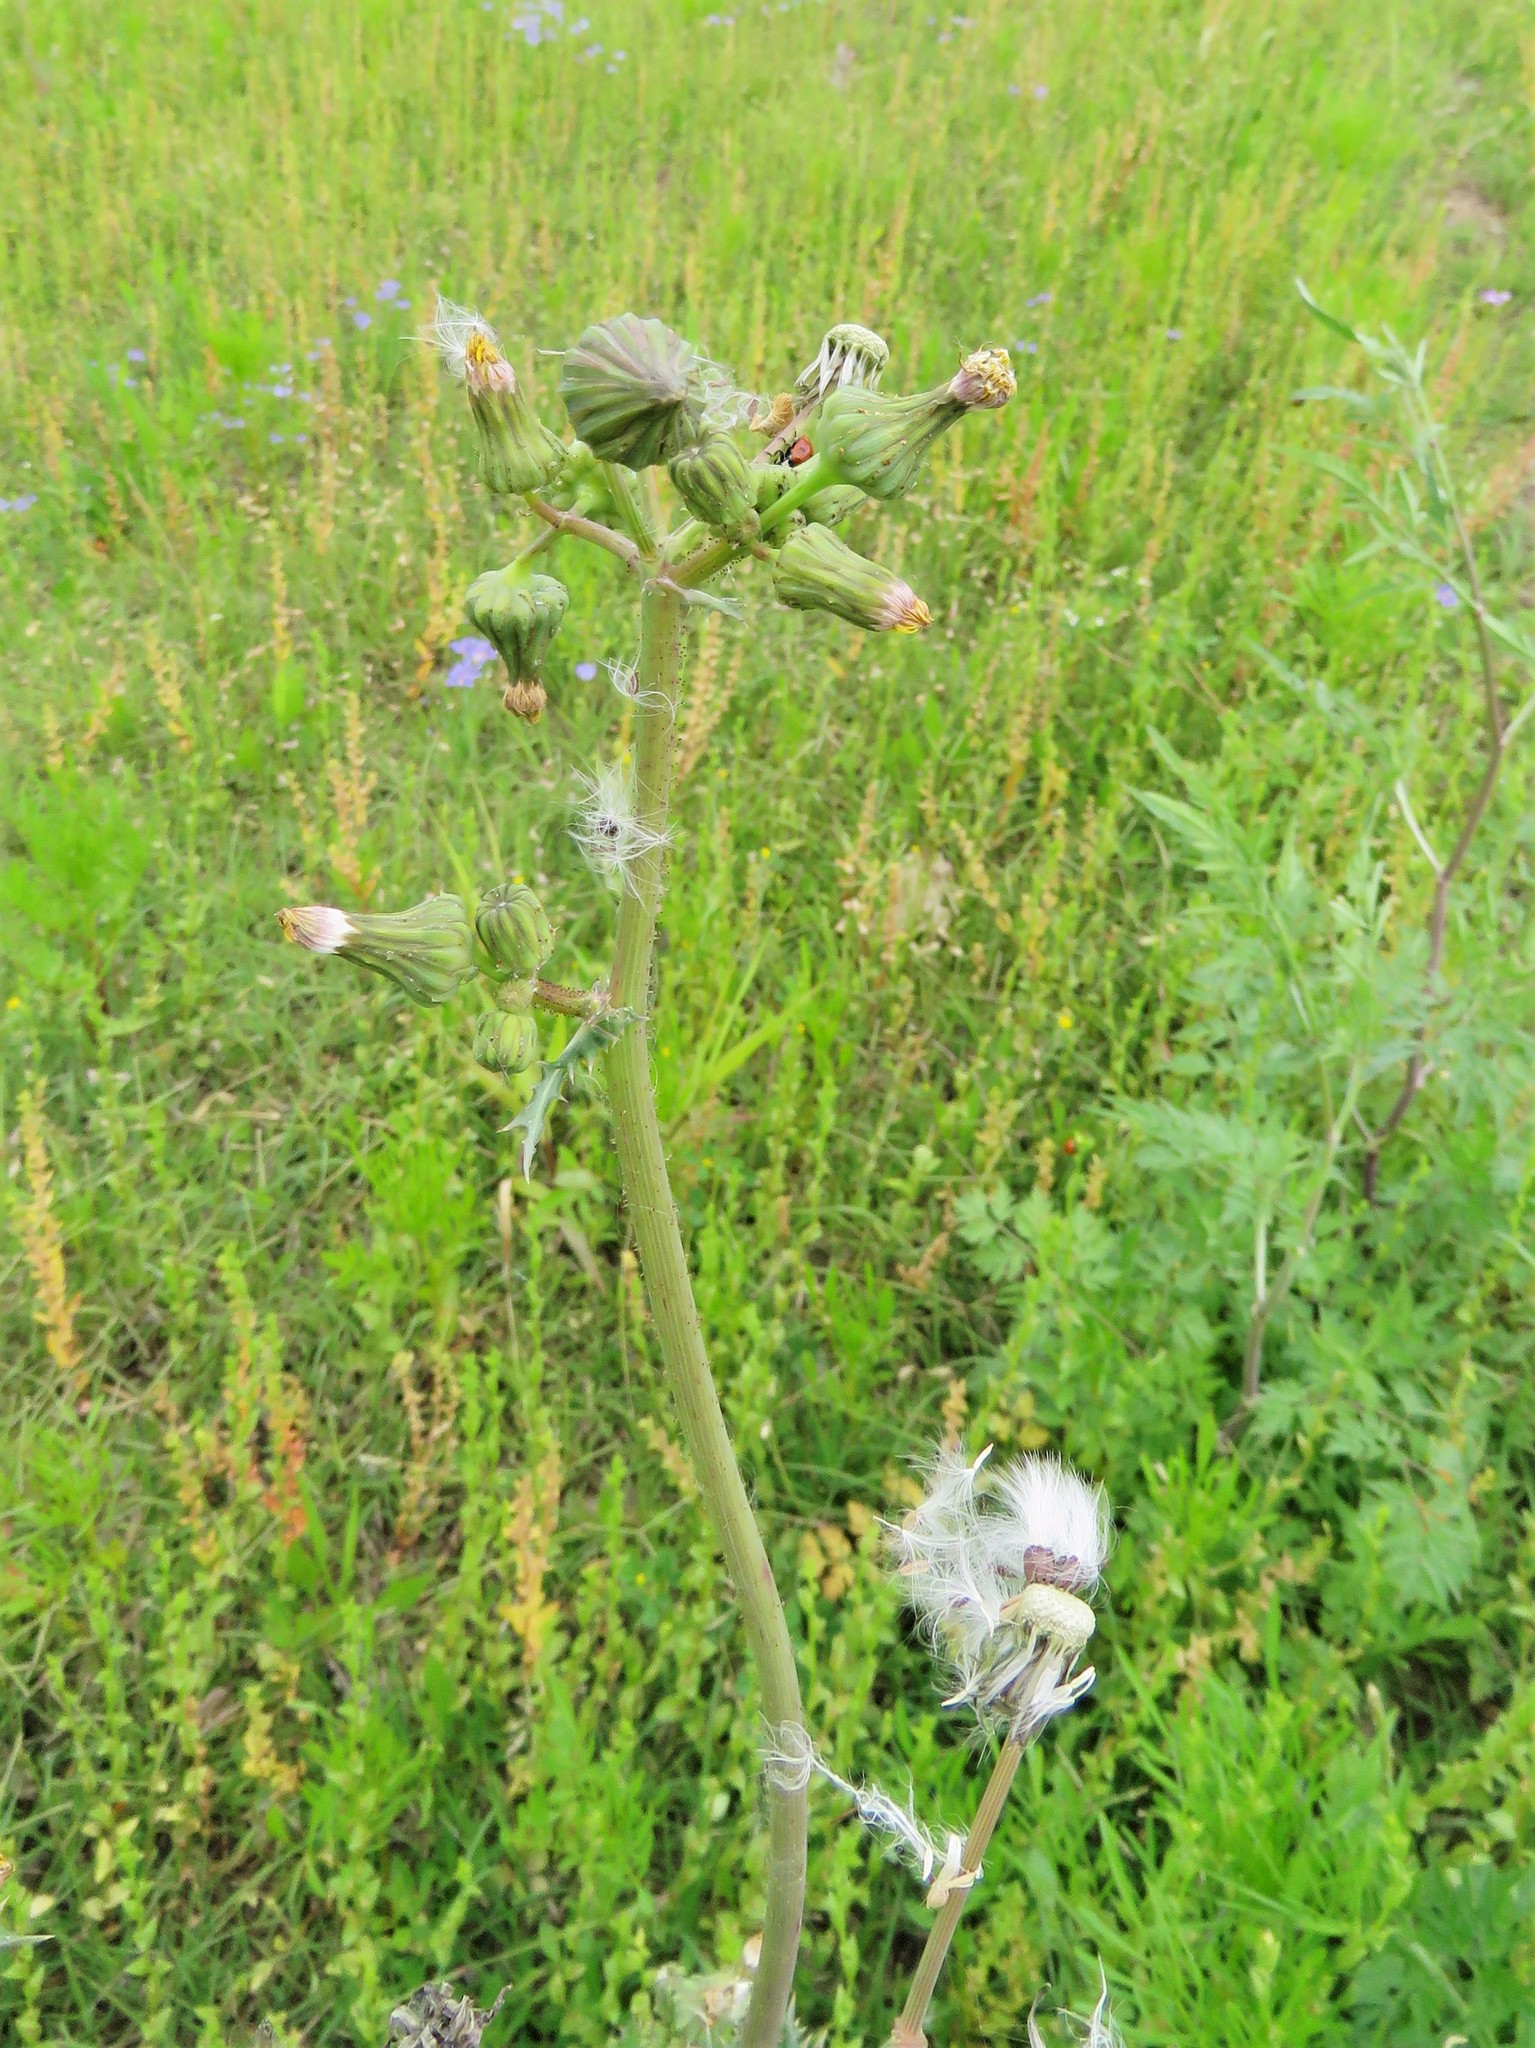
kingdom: Plantae
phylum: Tracheophyta
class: Magnoliopsida
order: Asterales
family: Asteraceae
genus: Sonchus
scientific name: Sonchus asper
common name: Prickly sow-thistle
